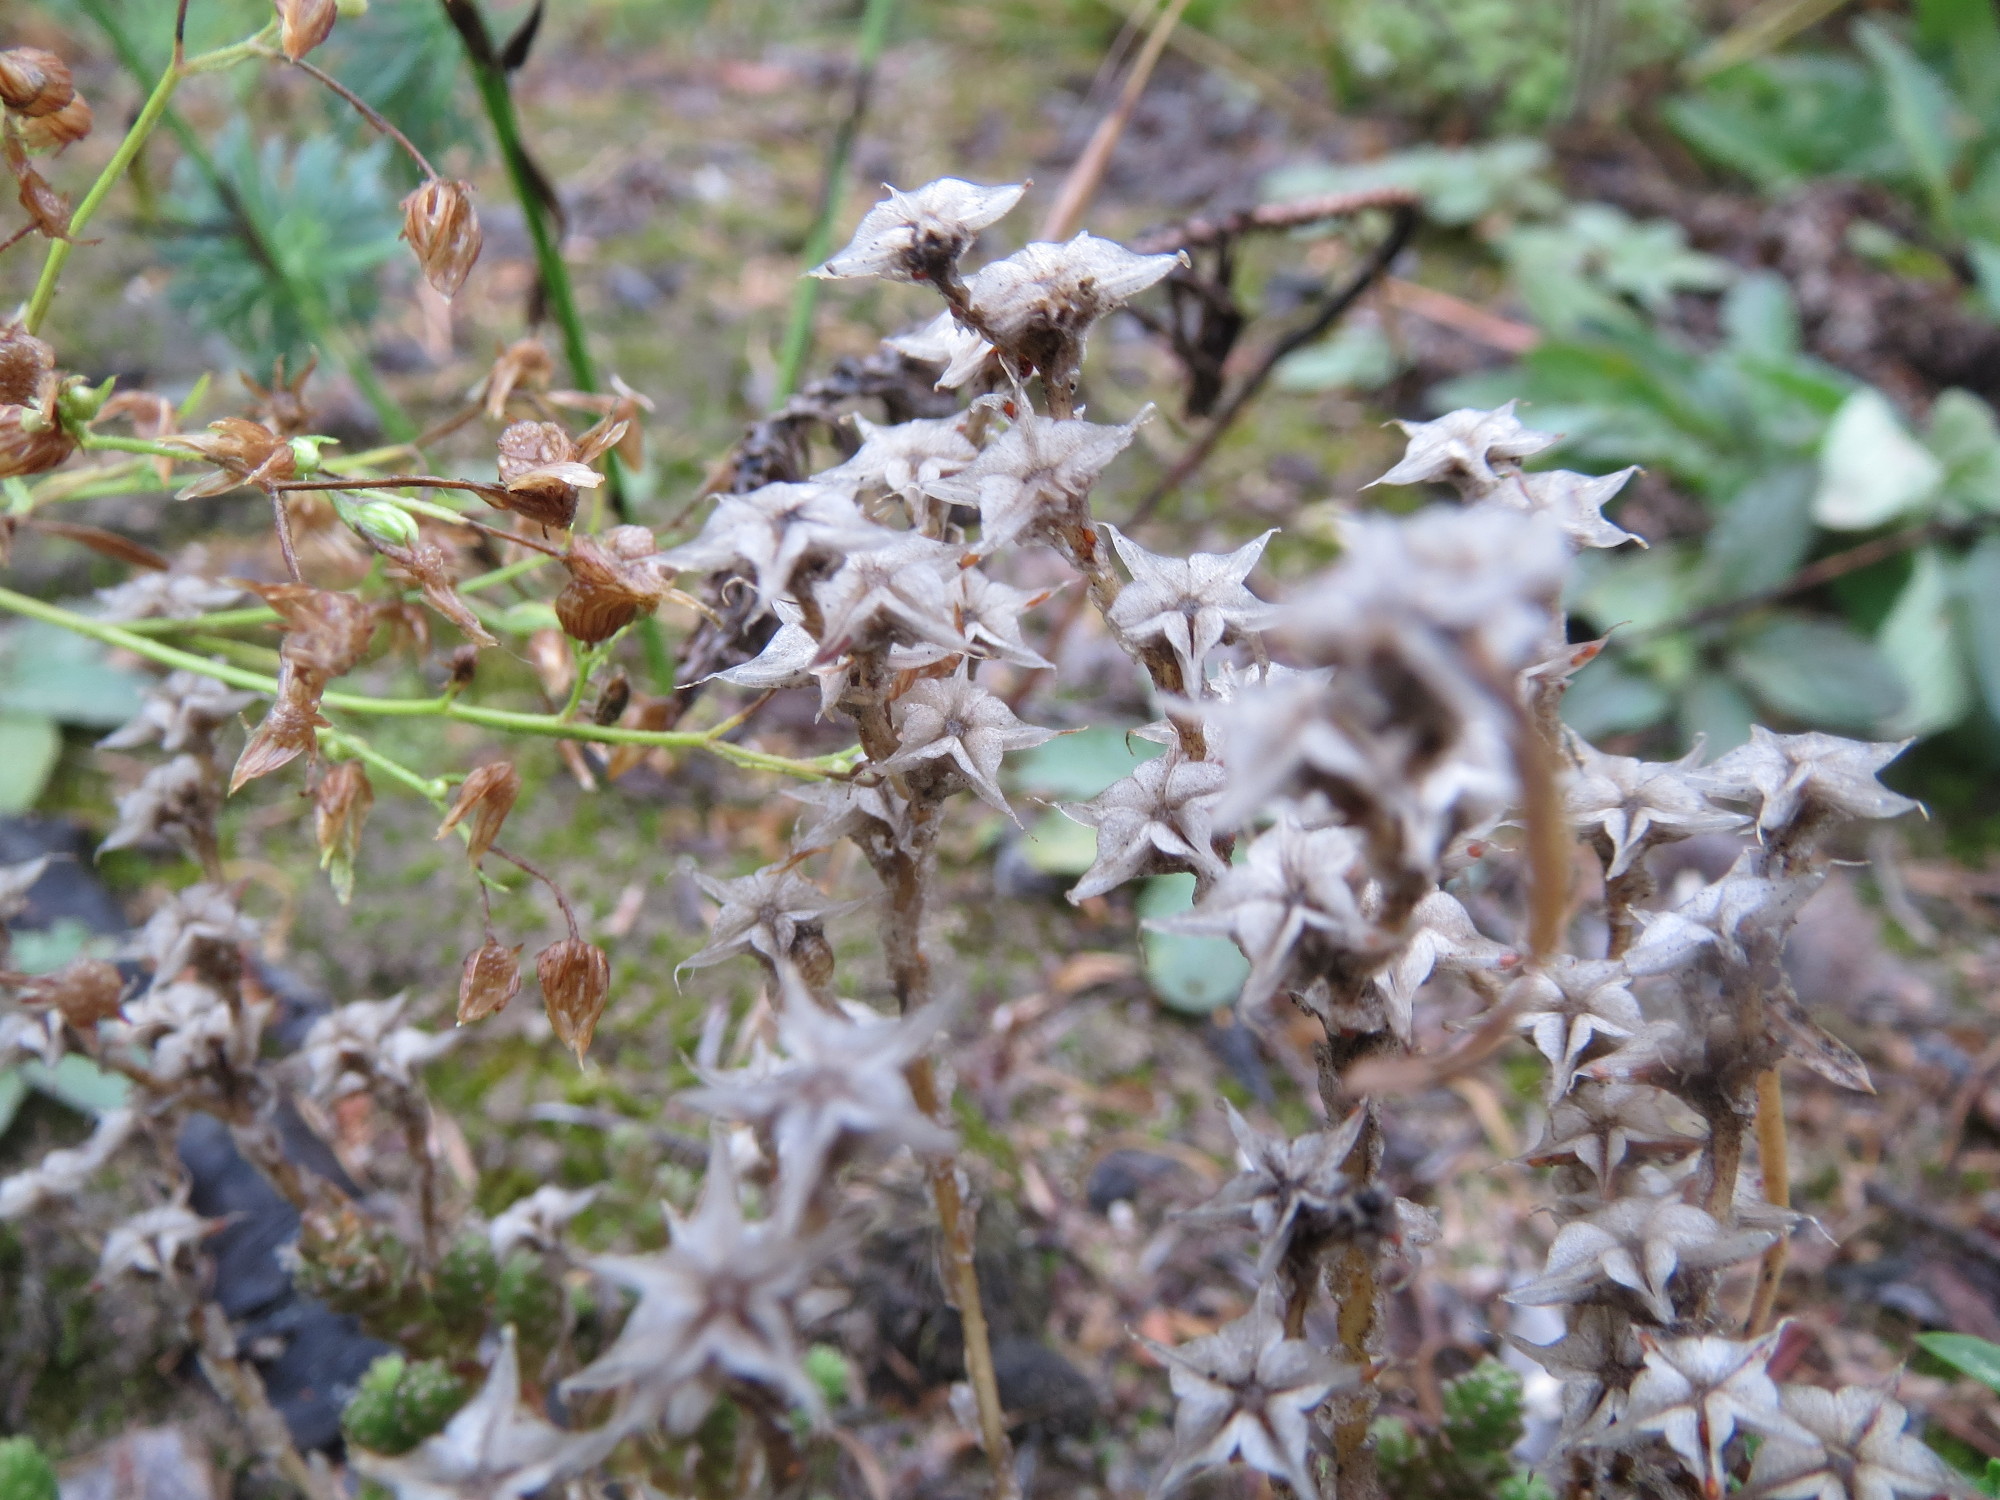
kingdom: Plantae
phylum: Tracheophyta
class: Magnoliopsida
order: Saxifragales
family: Crassulaceae
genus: Sedum
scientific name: Sedum acre
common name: Biting stonecrop
